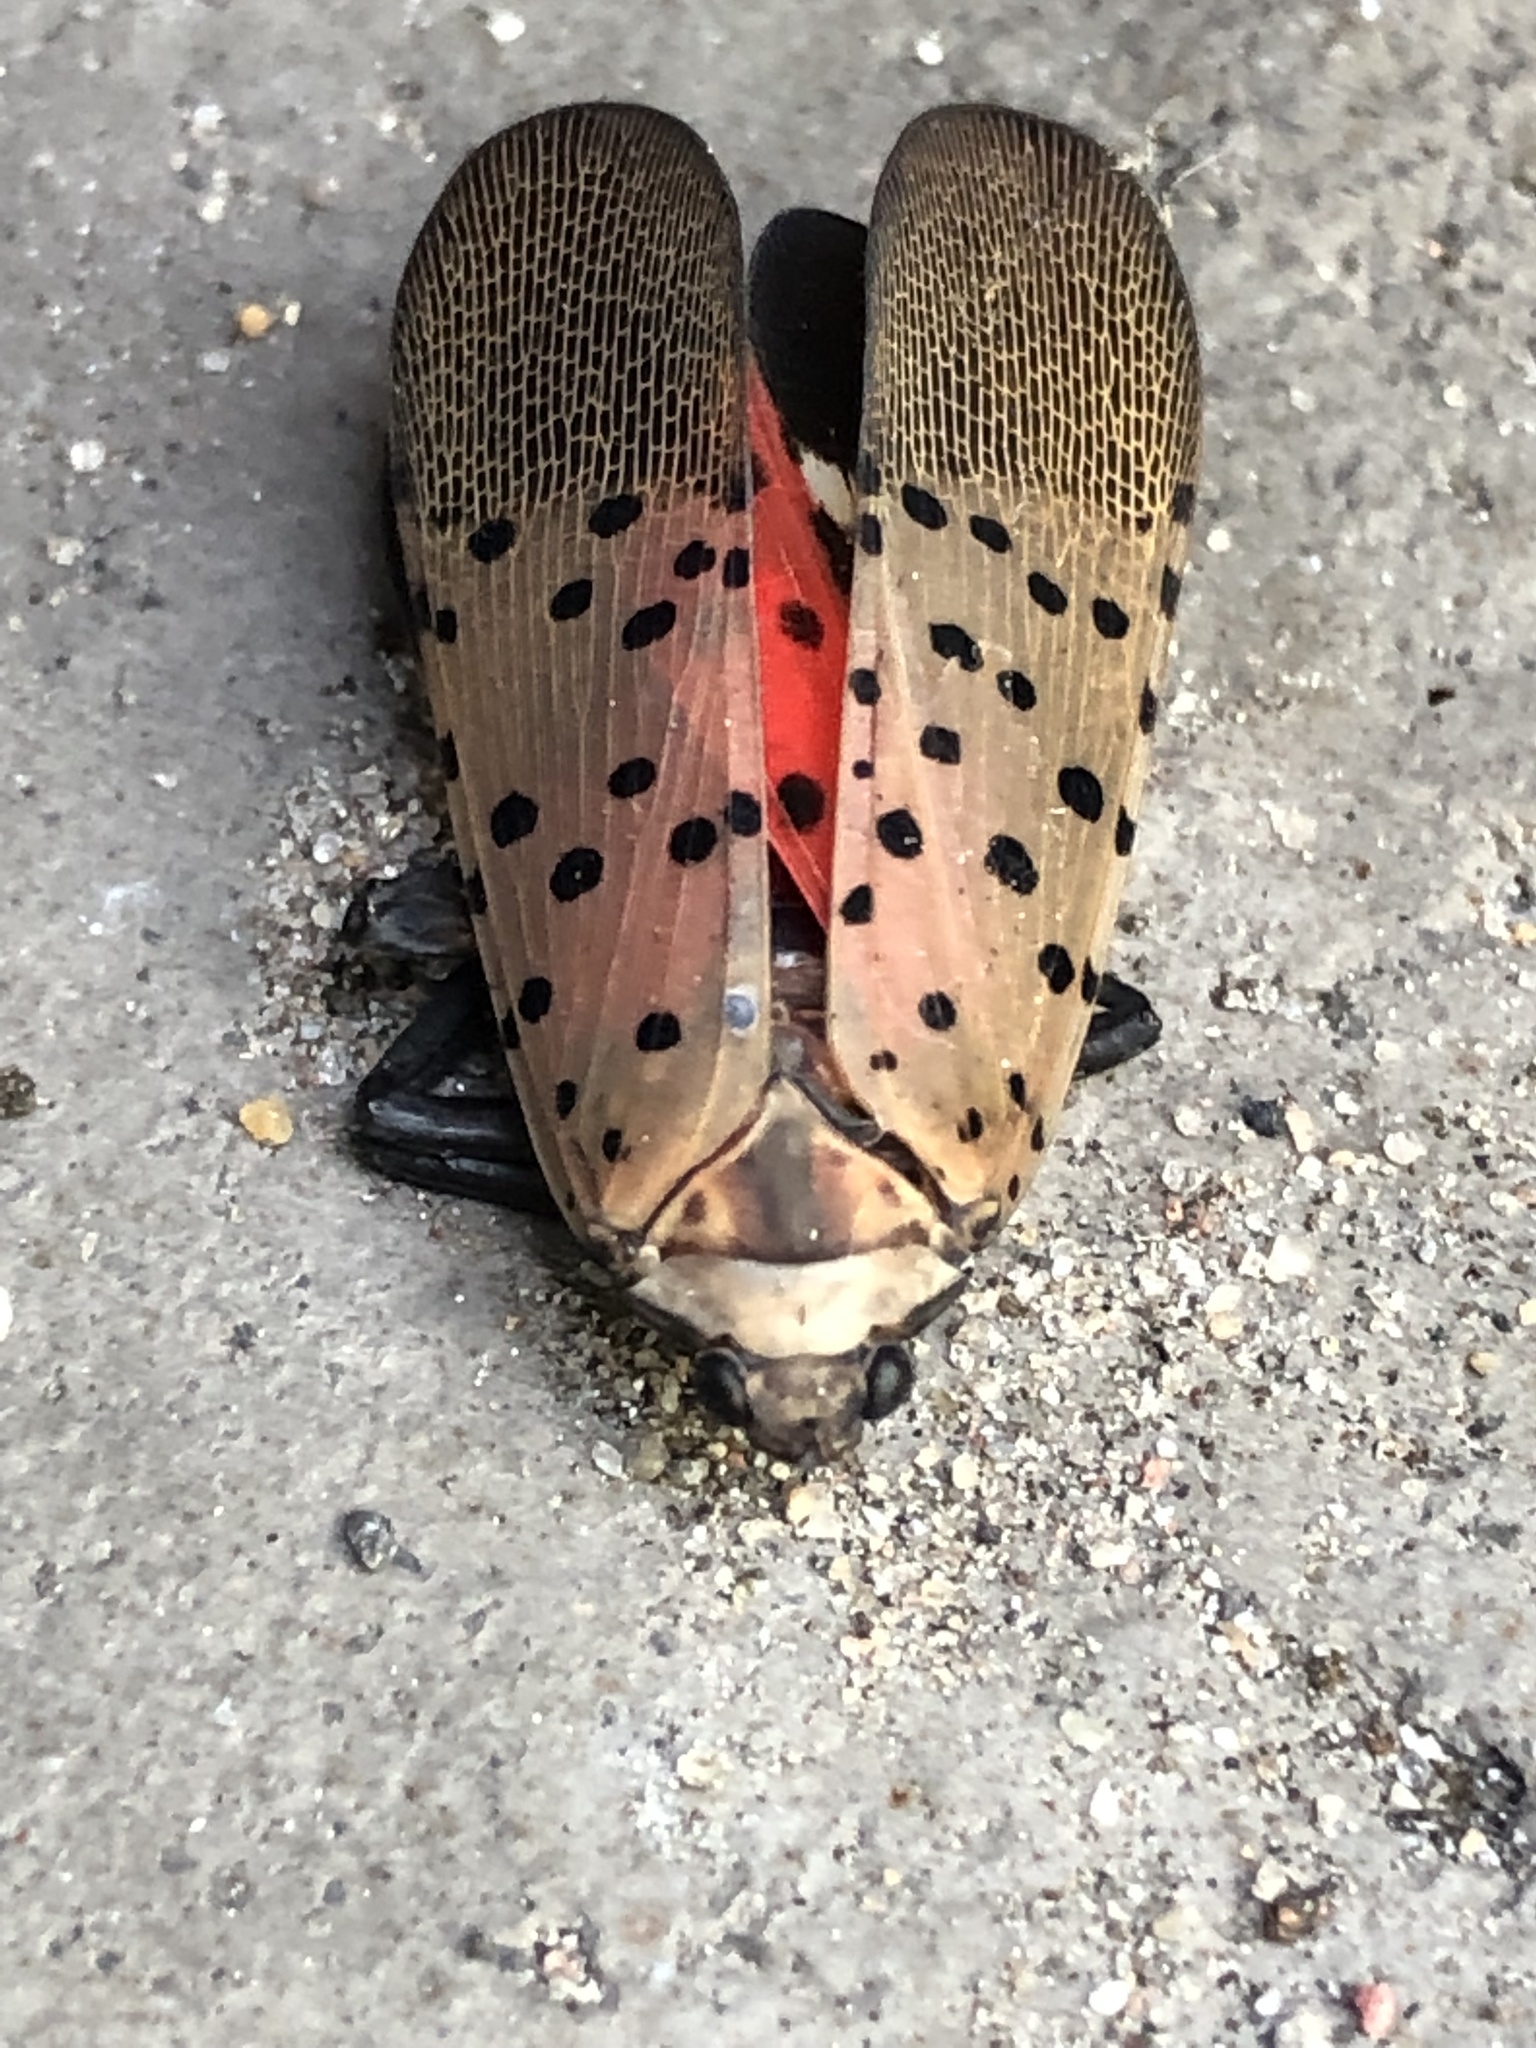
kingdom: Animalia
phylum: Arthropoda
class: Insecta
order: Hemiptera
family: Fulgoridae
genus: Lycorma
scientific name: Lycorma delicatula
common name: Spotted lanternfly
